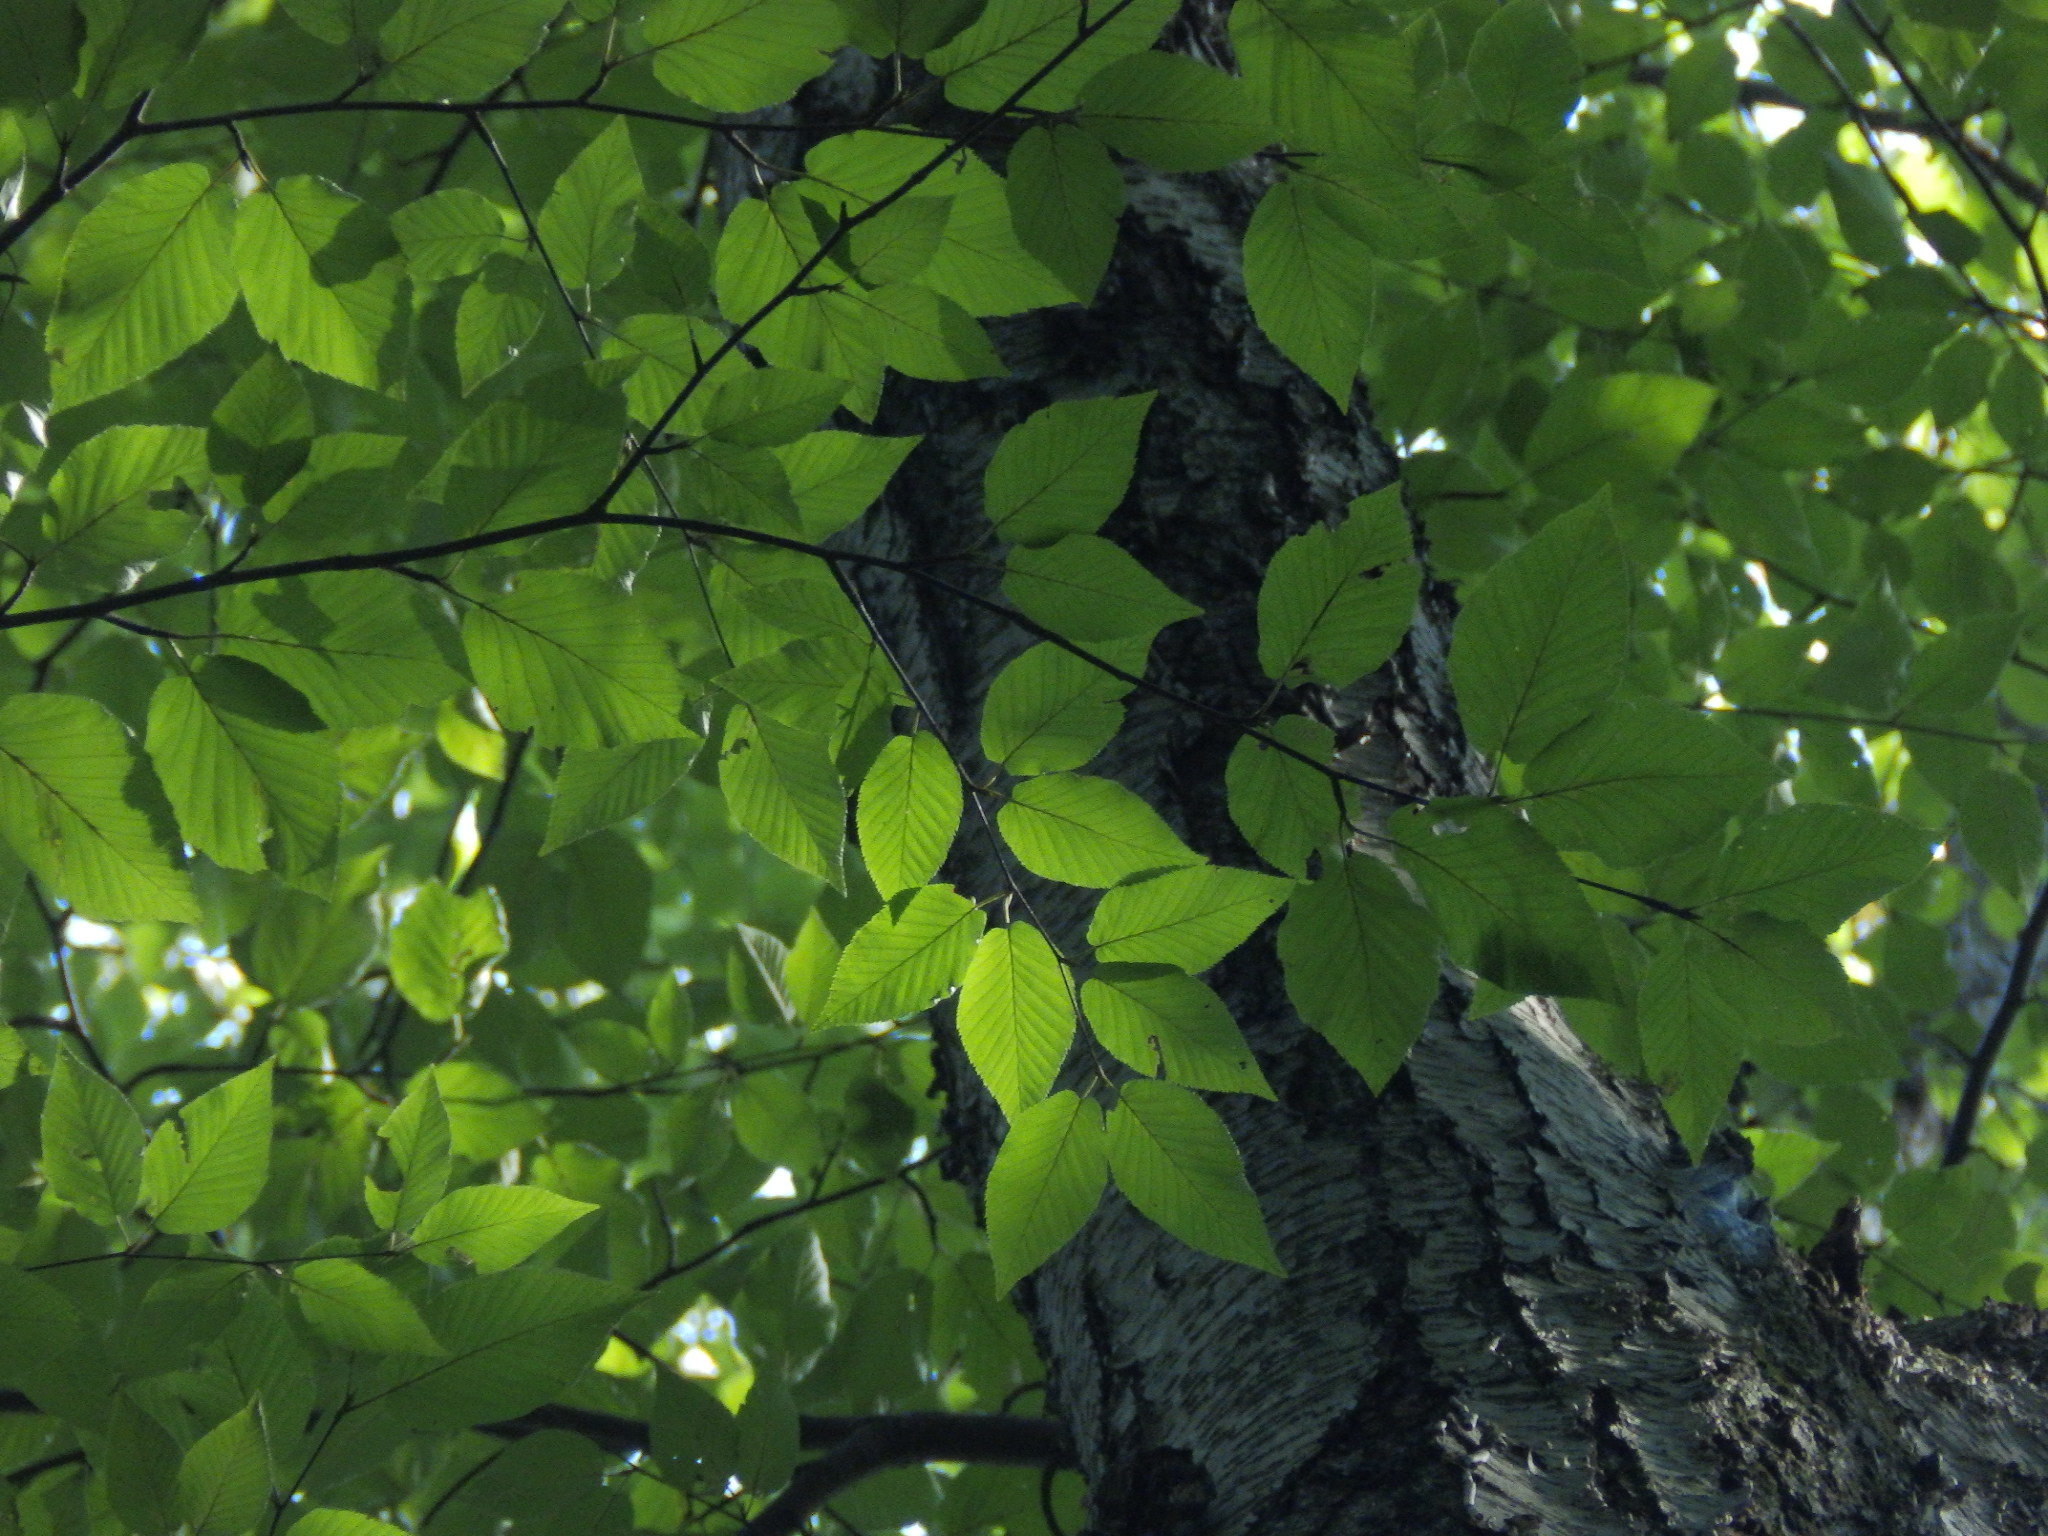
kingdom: Plantae
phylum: Tracheophyta
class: Magnoliopsida
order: Fagales
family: Betulaceae
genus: Betula
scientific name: Betula lenta
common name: Black birch
